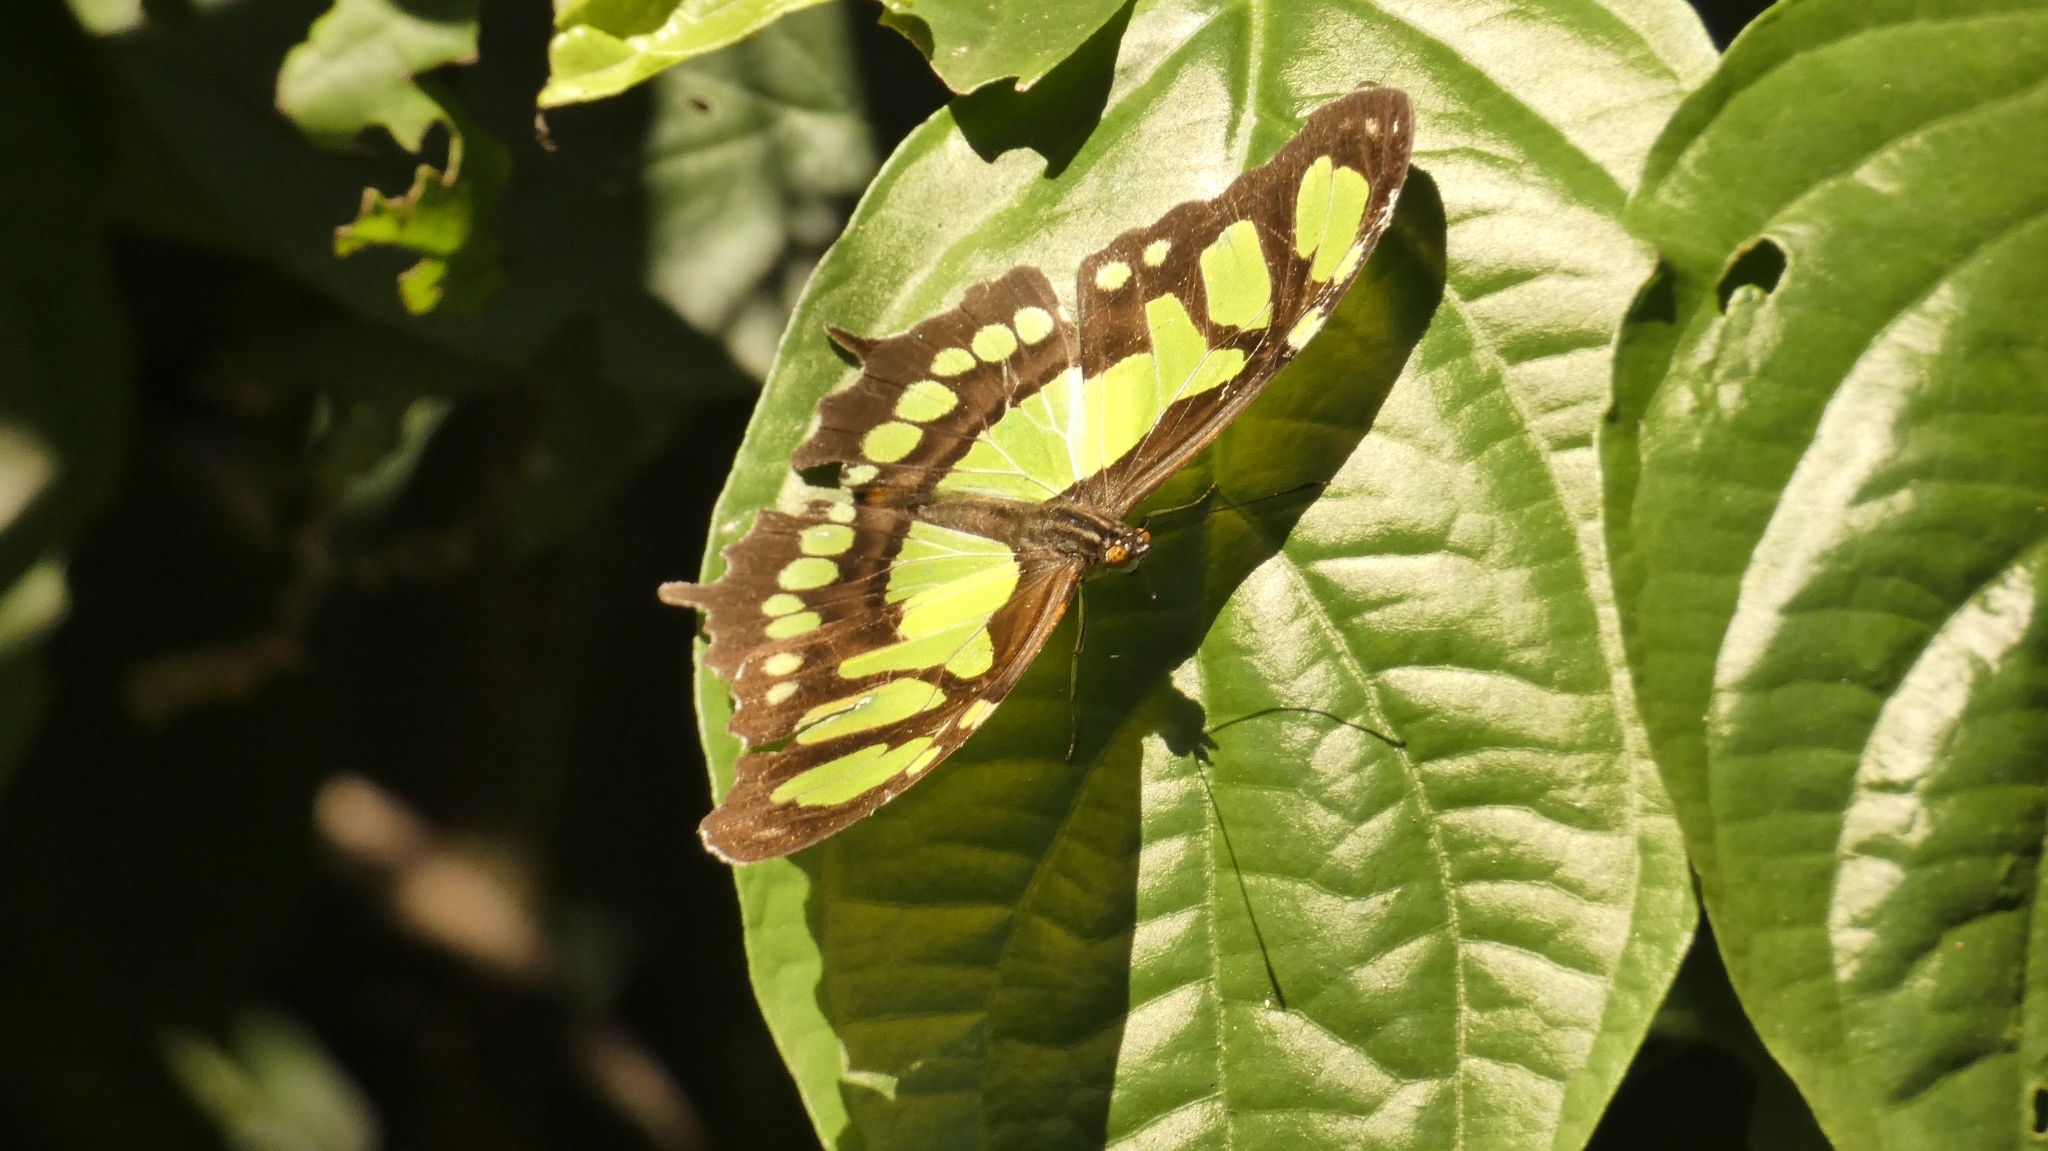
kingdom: Animalia
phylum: Arthropoda
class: Insecta
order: Lepidoptera
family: Nymphalidae
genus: Siproeta
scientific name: Siproeta stelenes
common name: Malachite
